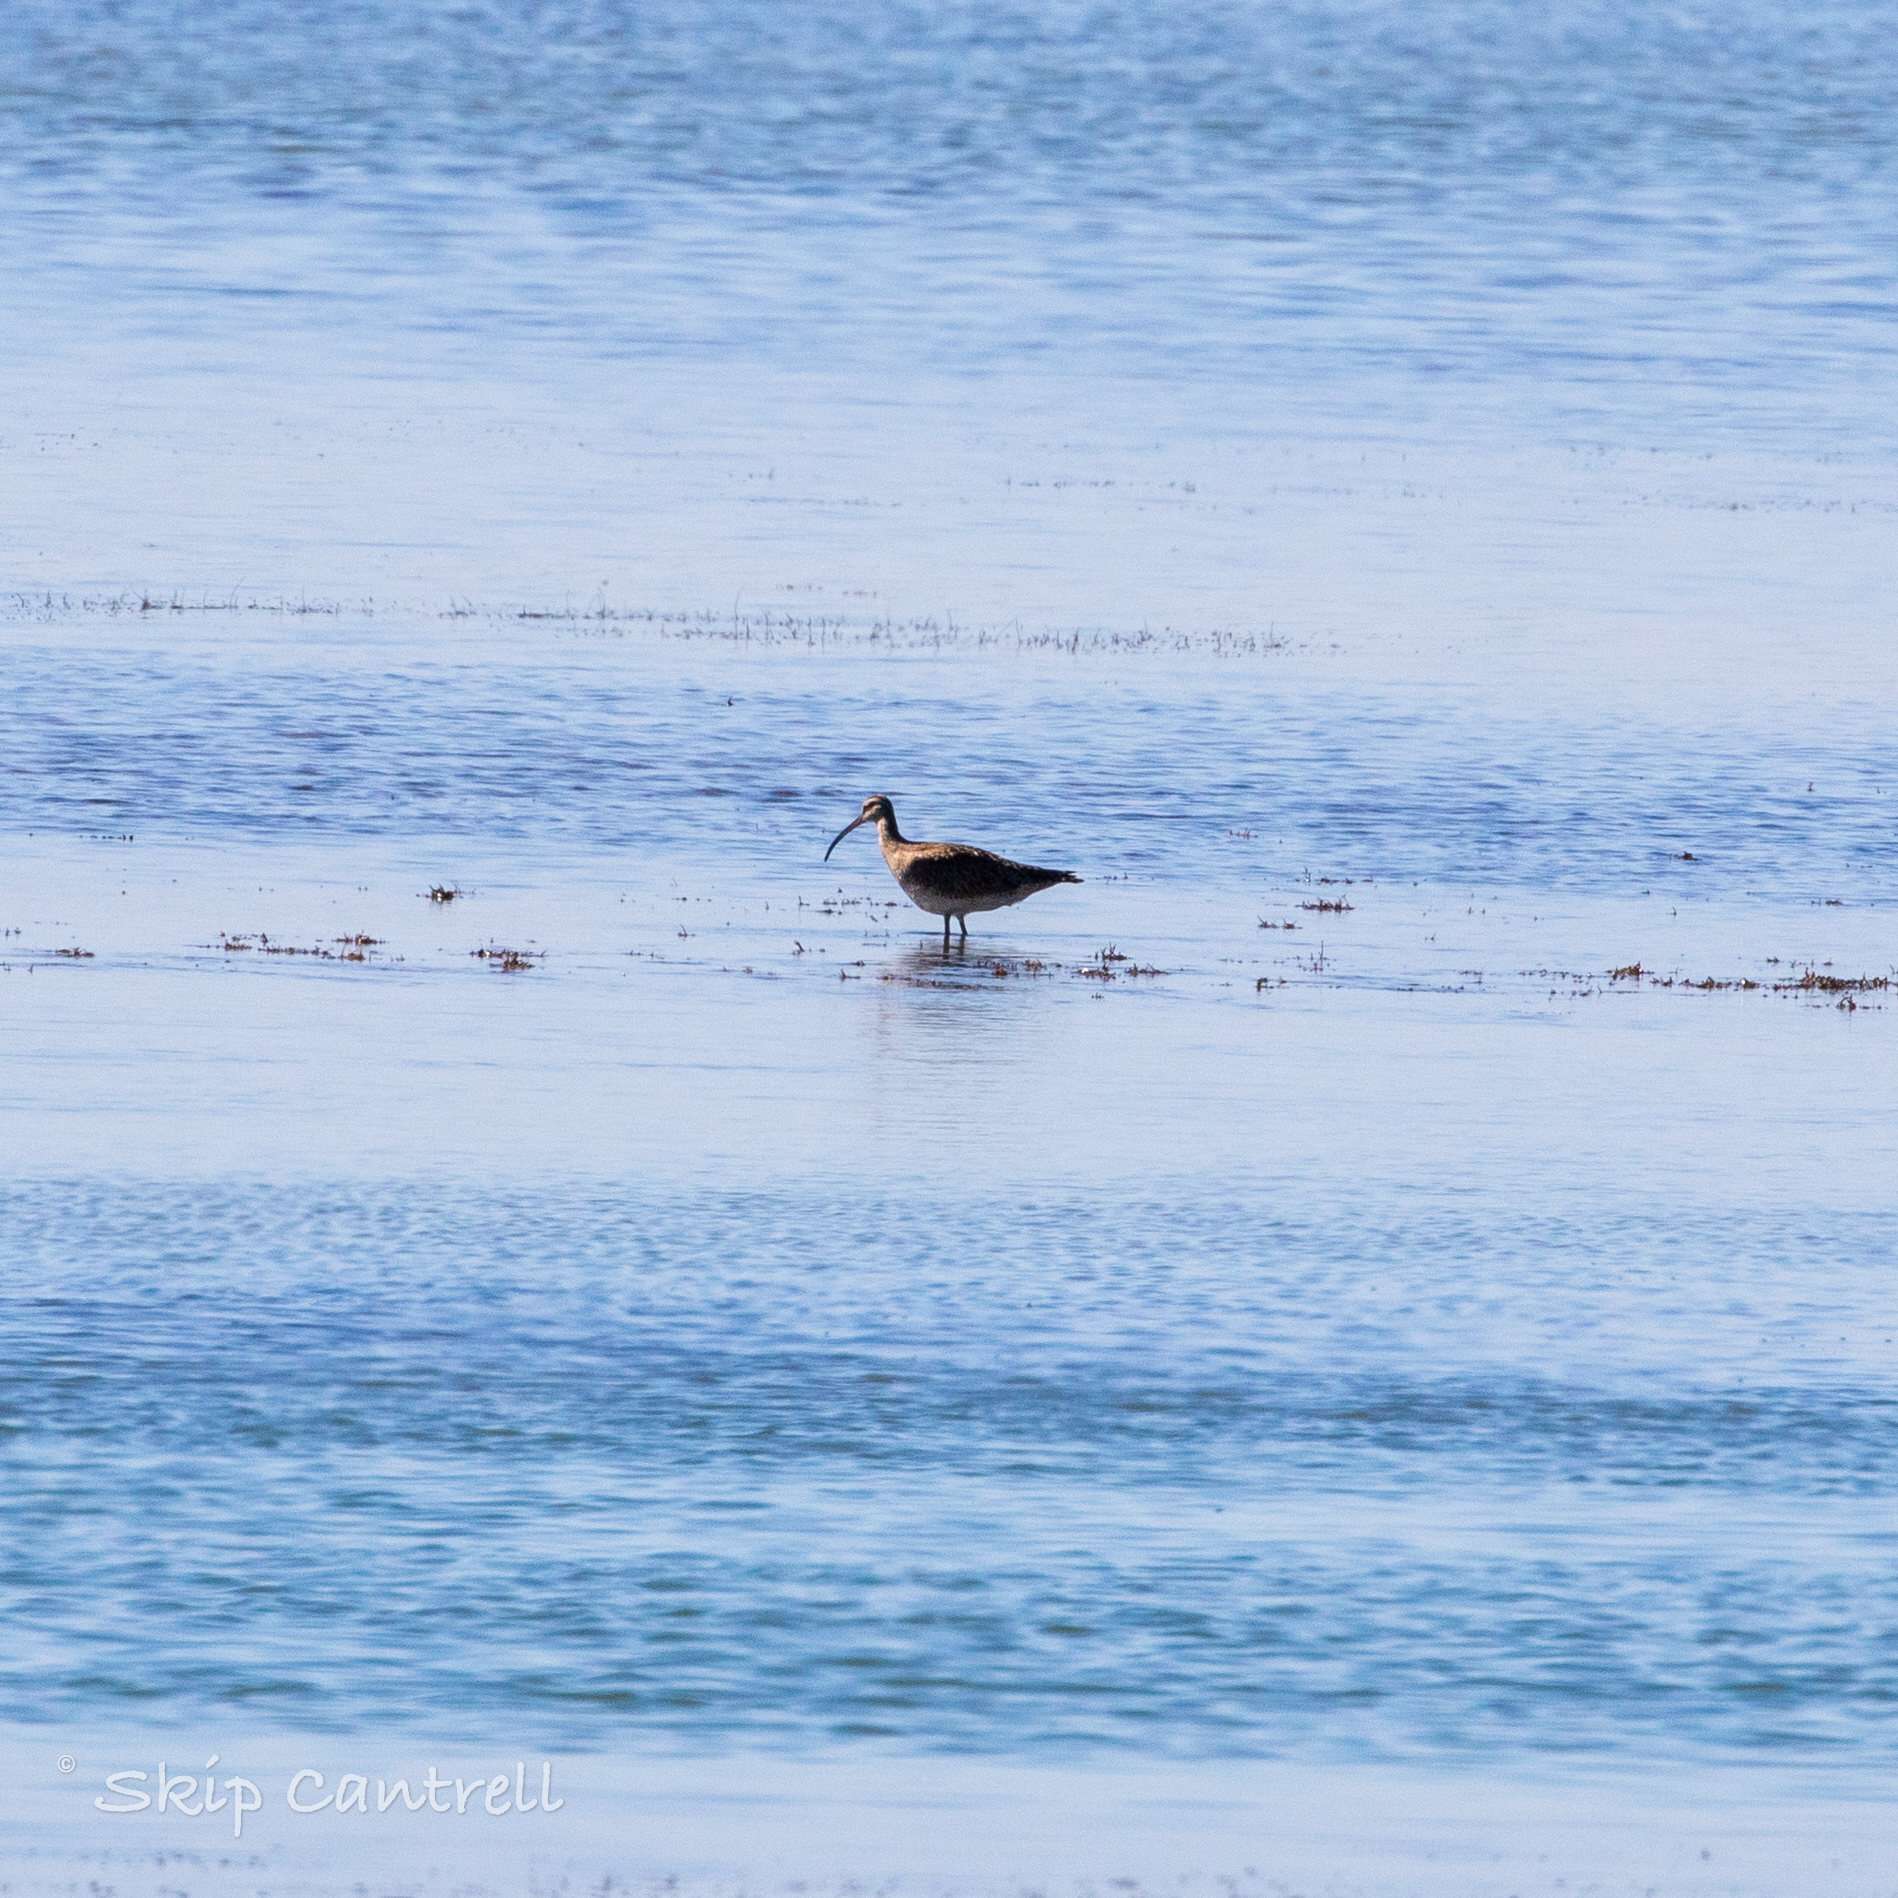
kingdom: Animalia
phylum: Chordata
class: Aves
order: Charadriiformes
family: Scolopacidae
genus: Numenius
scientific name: Numenius phaeopus
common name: Whimbrel
